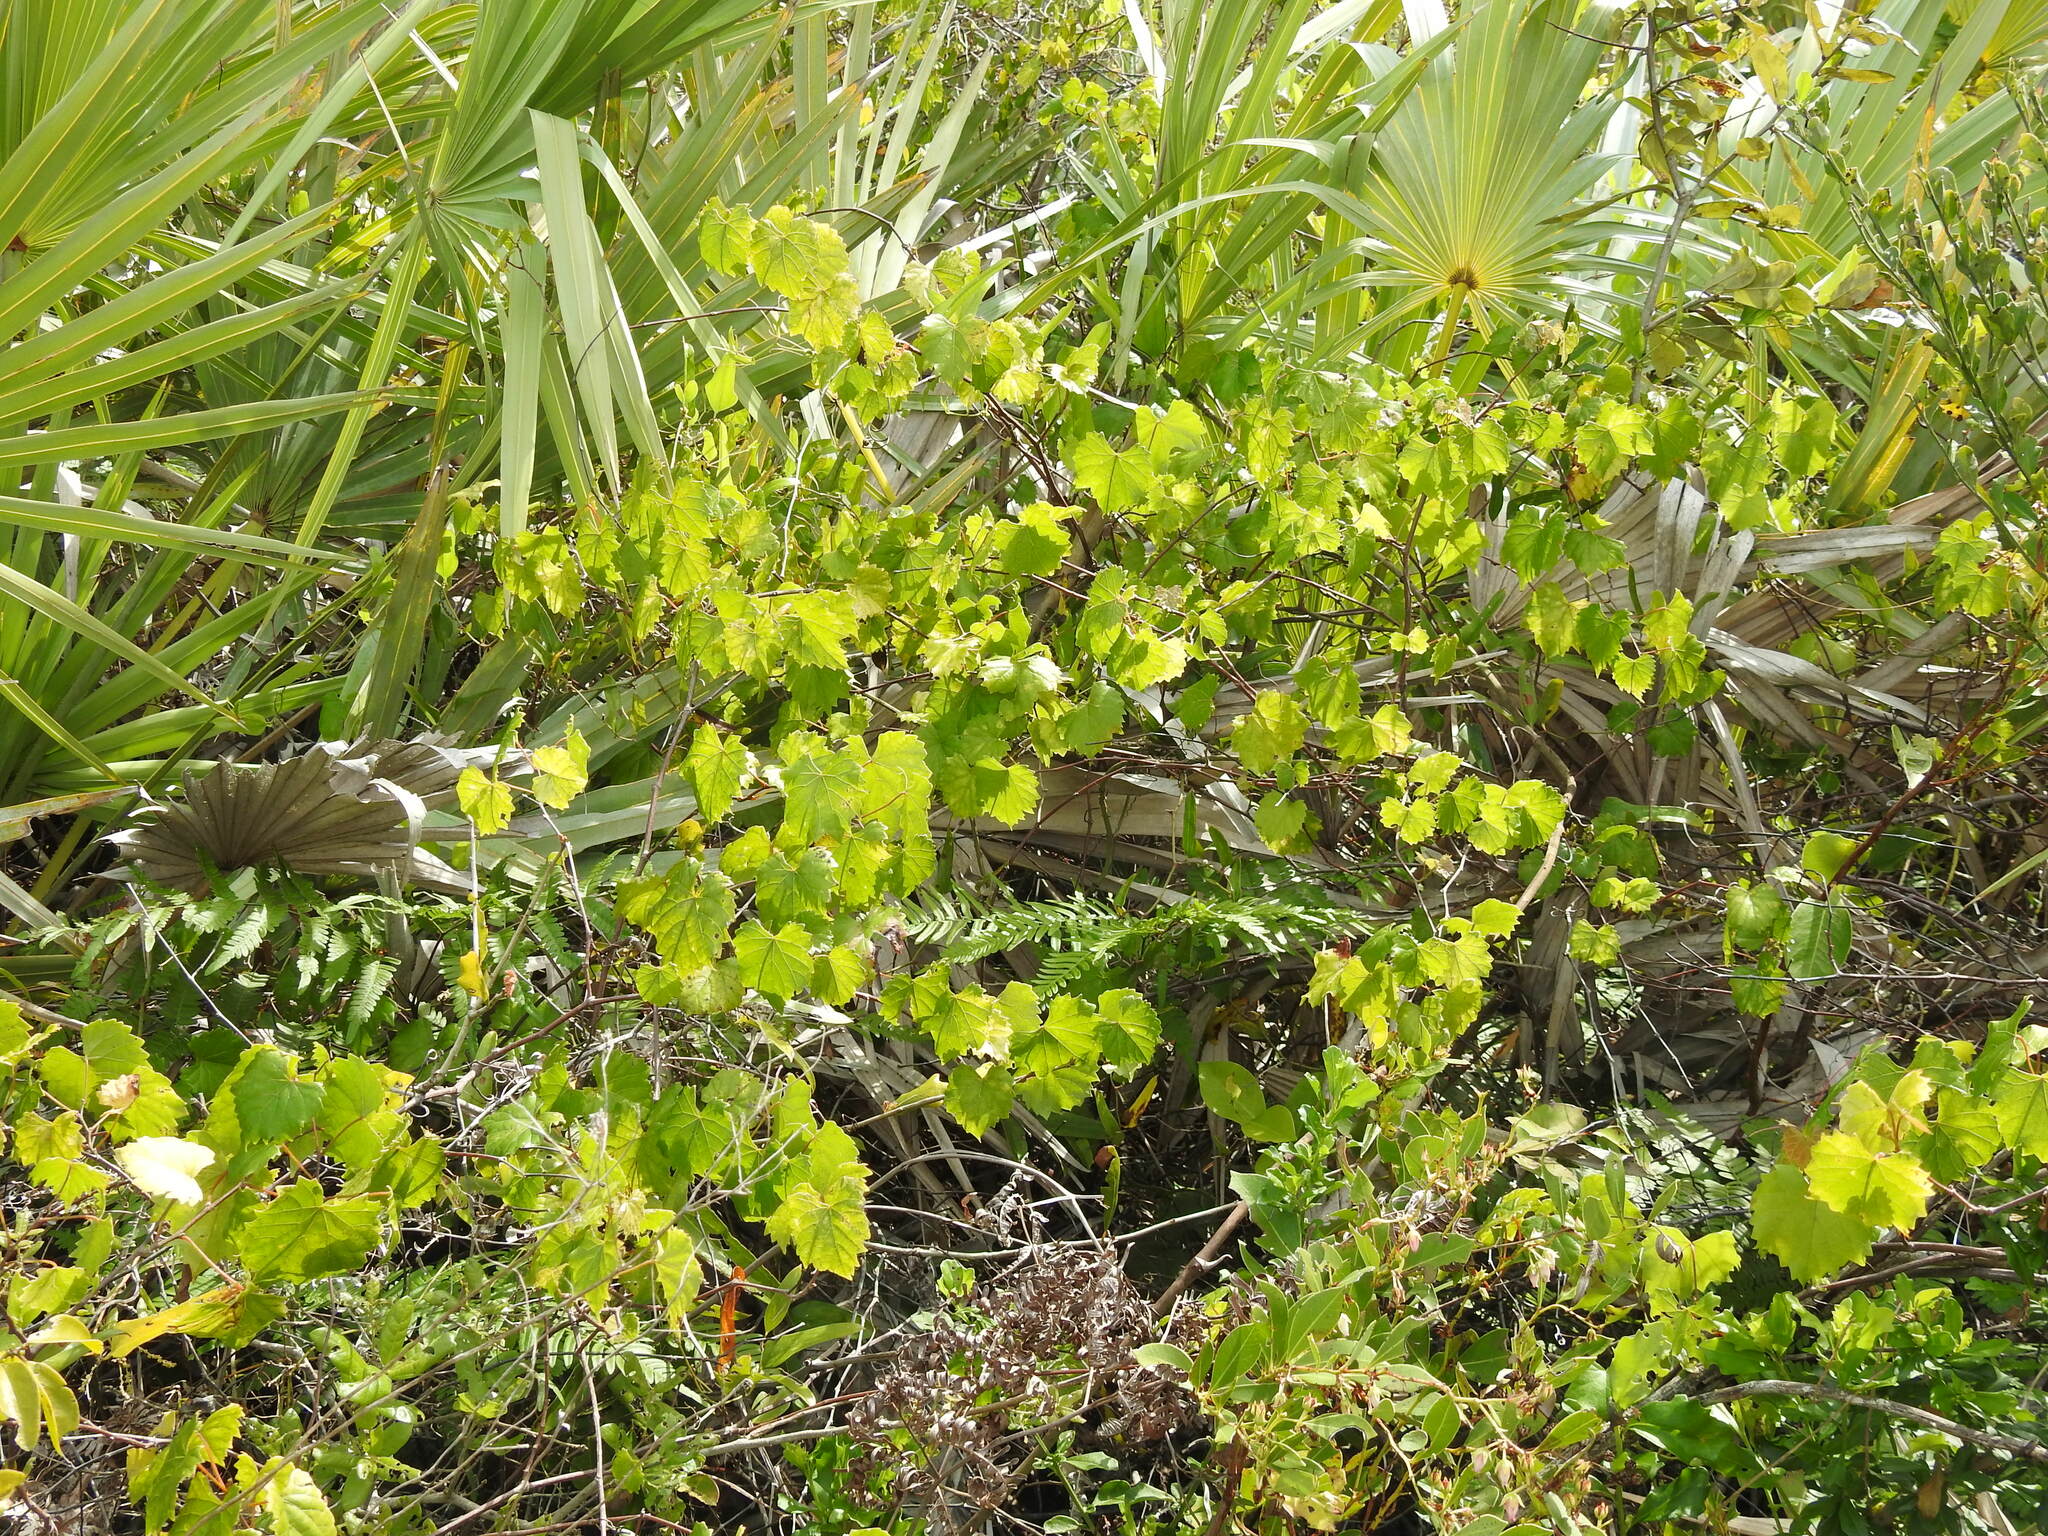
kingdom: Plantae
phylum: Tracheophyta
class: Magnoliopsida
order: Vitales
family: Vitaceae
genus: Vitis
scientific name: Vitis rotundifolia
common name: Muscadine grape
